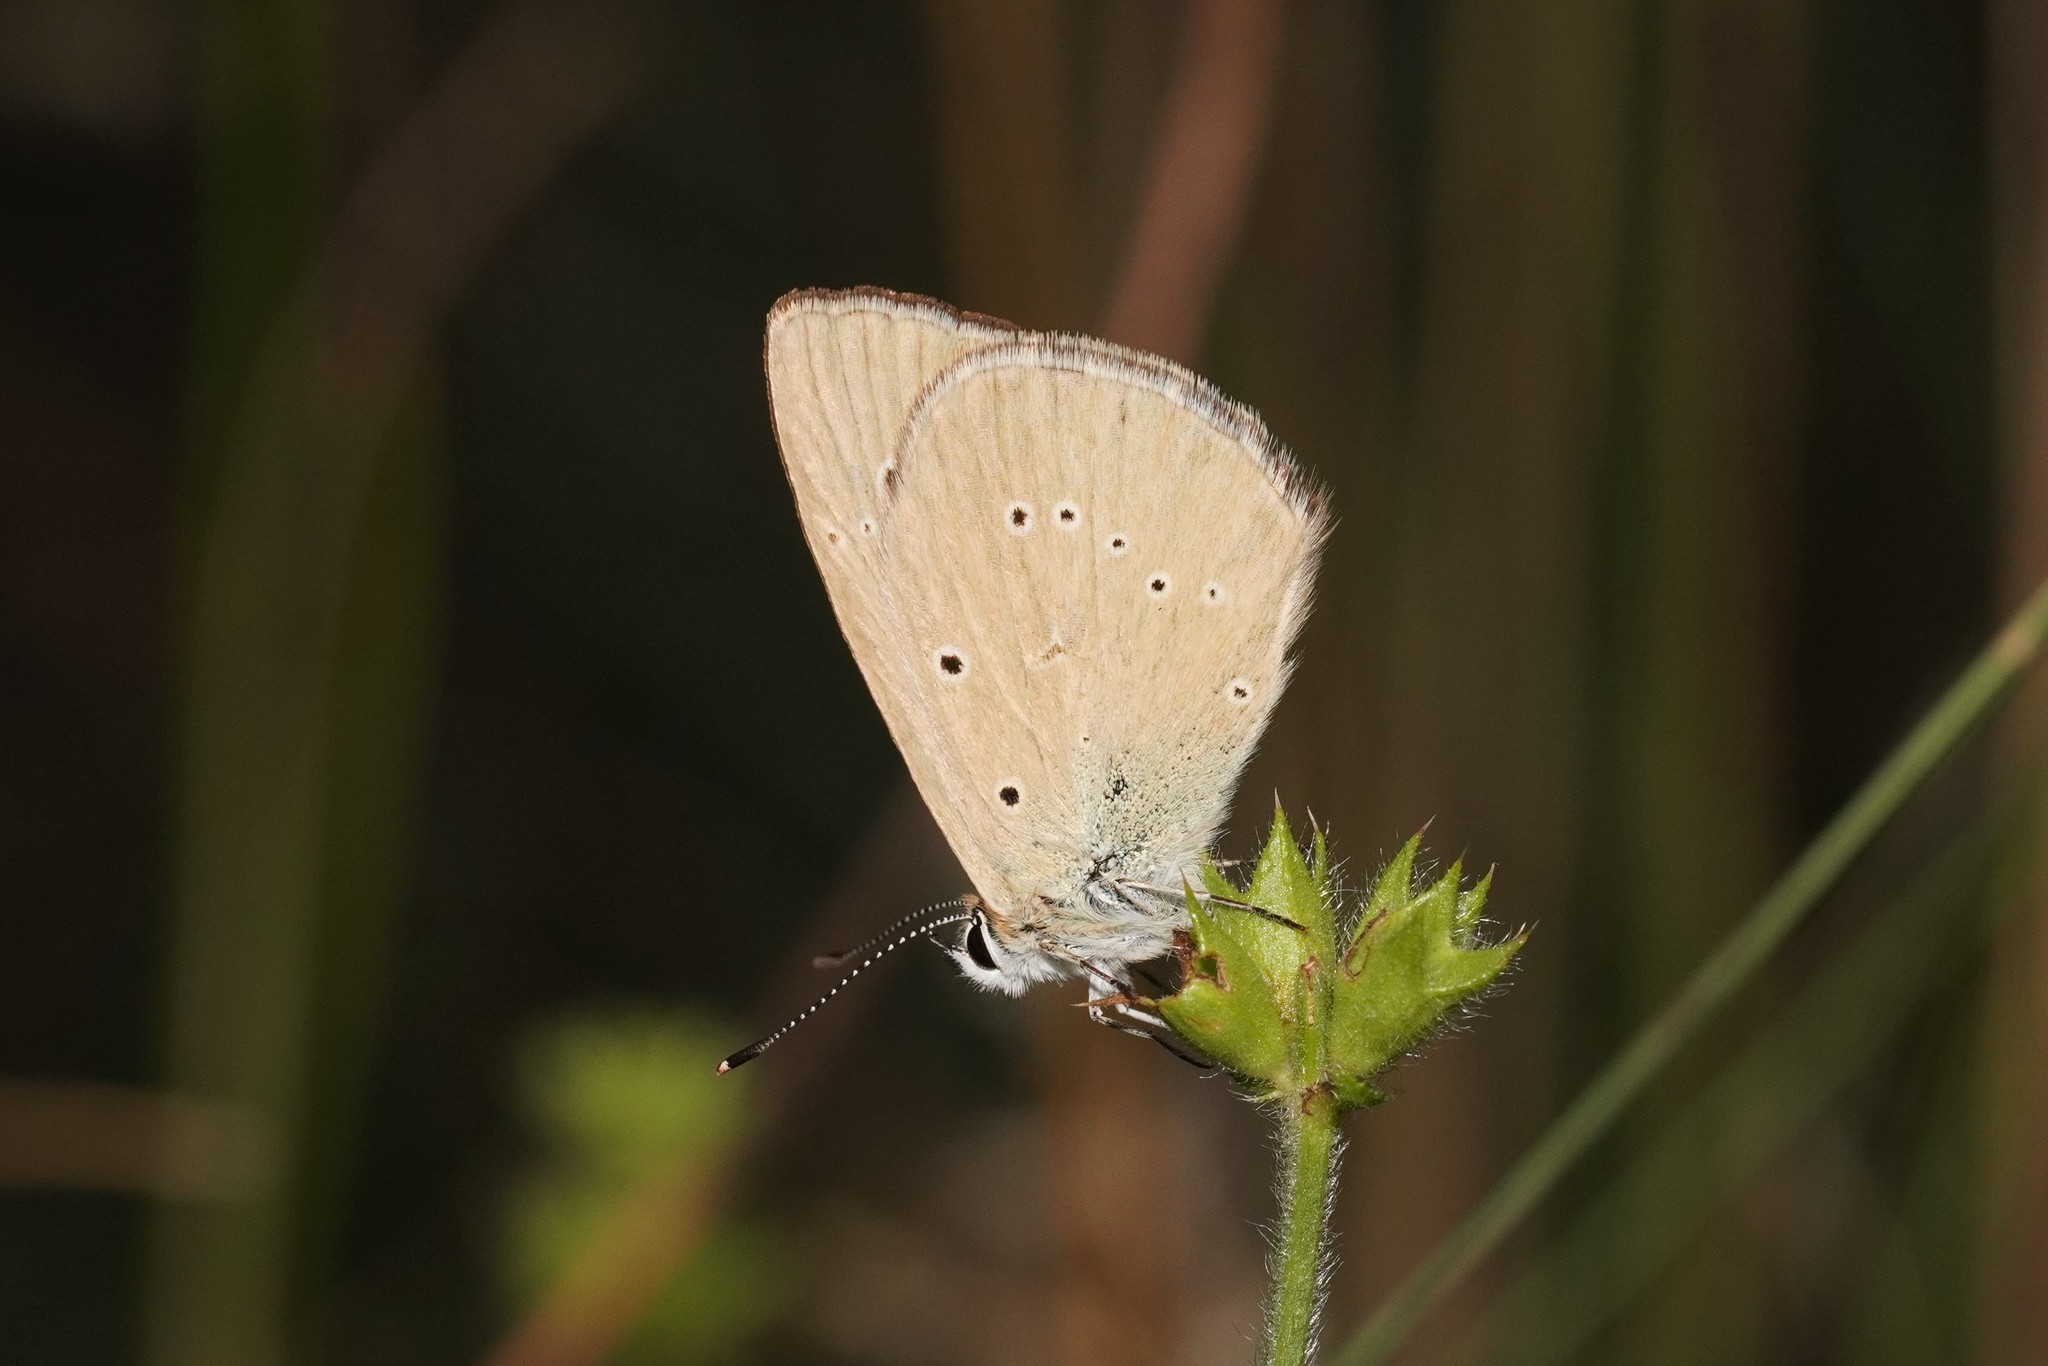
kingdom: Animalia
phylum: Arthropoda
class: Insecta
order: Lepidoptera
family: Lycaenidae
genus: Agrodiaetus
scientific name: Agrodiaetus humedasae
